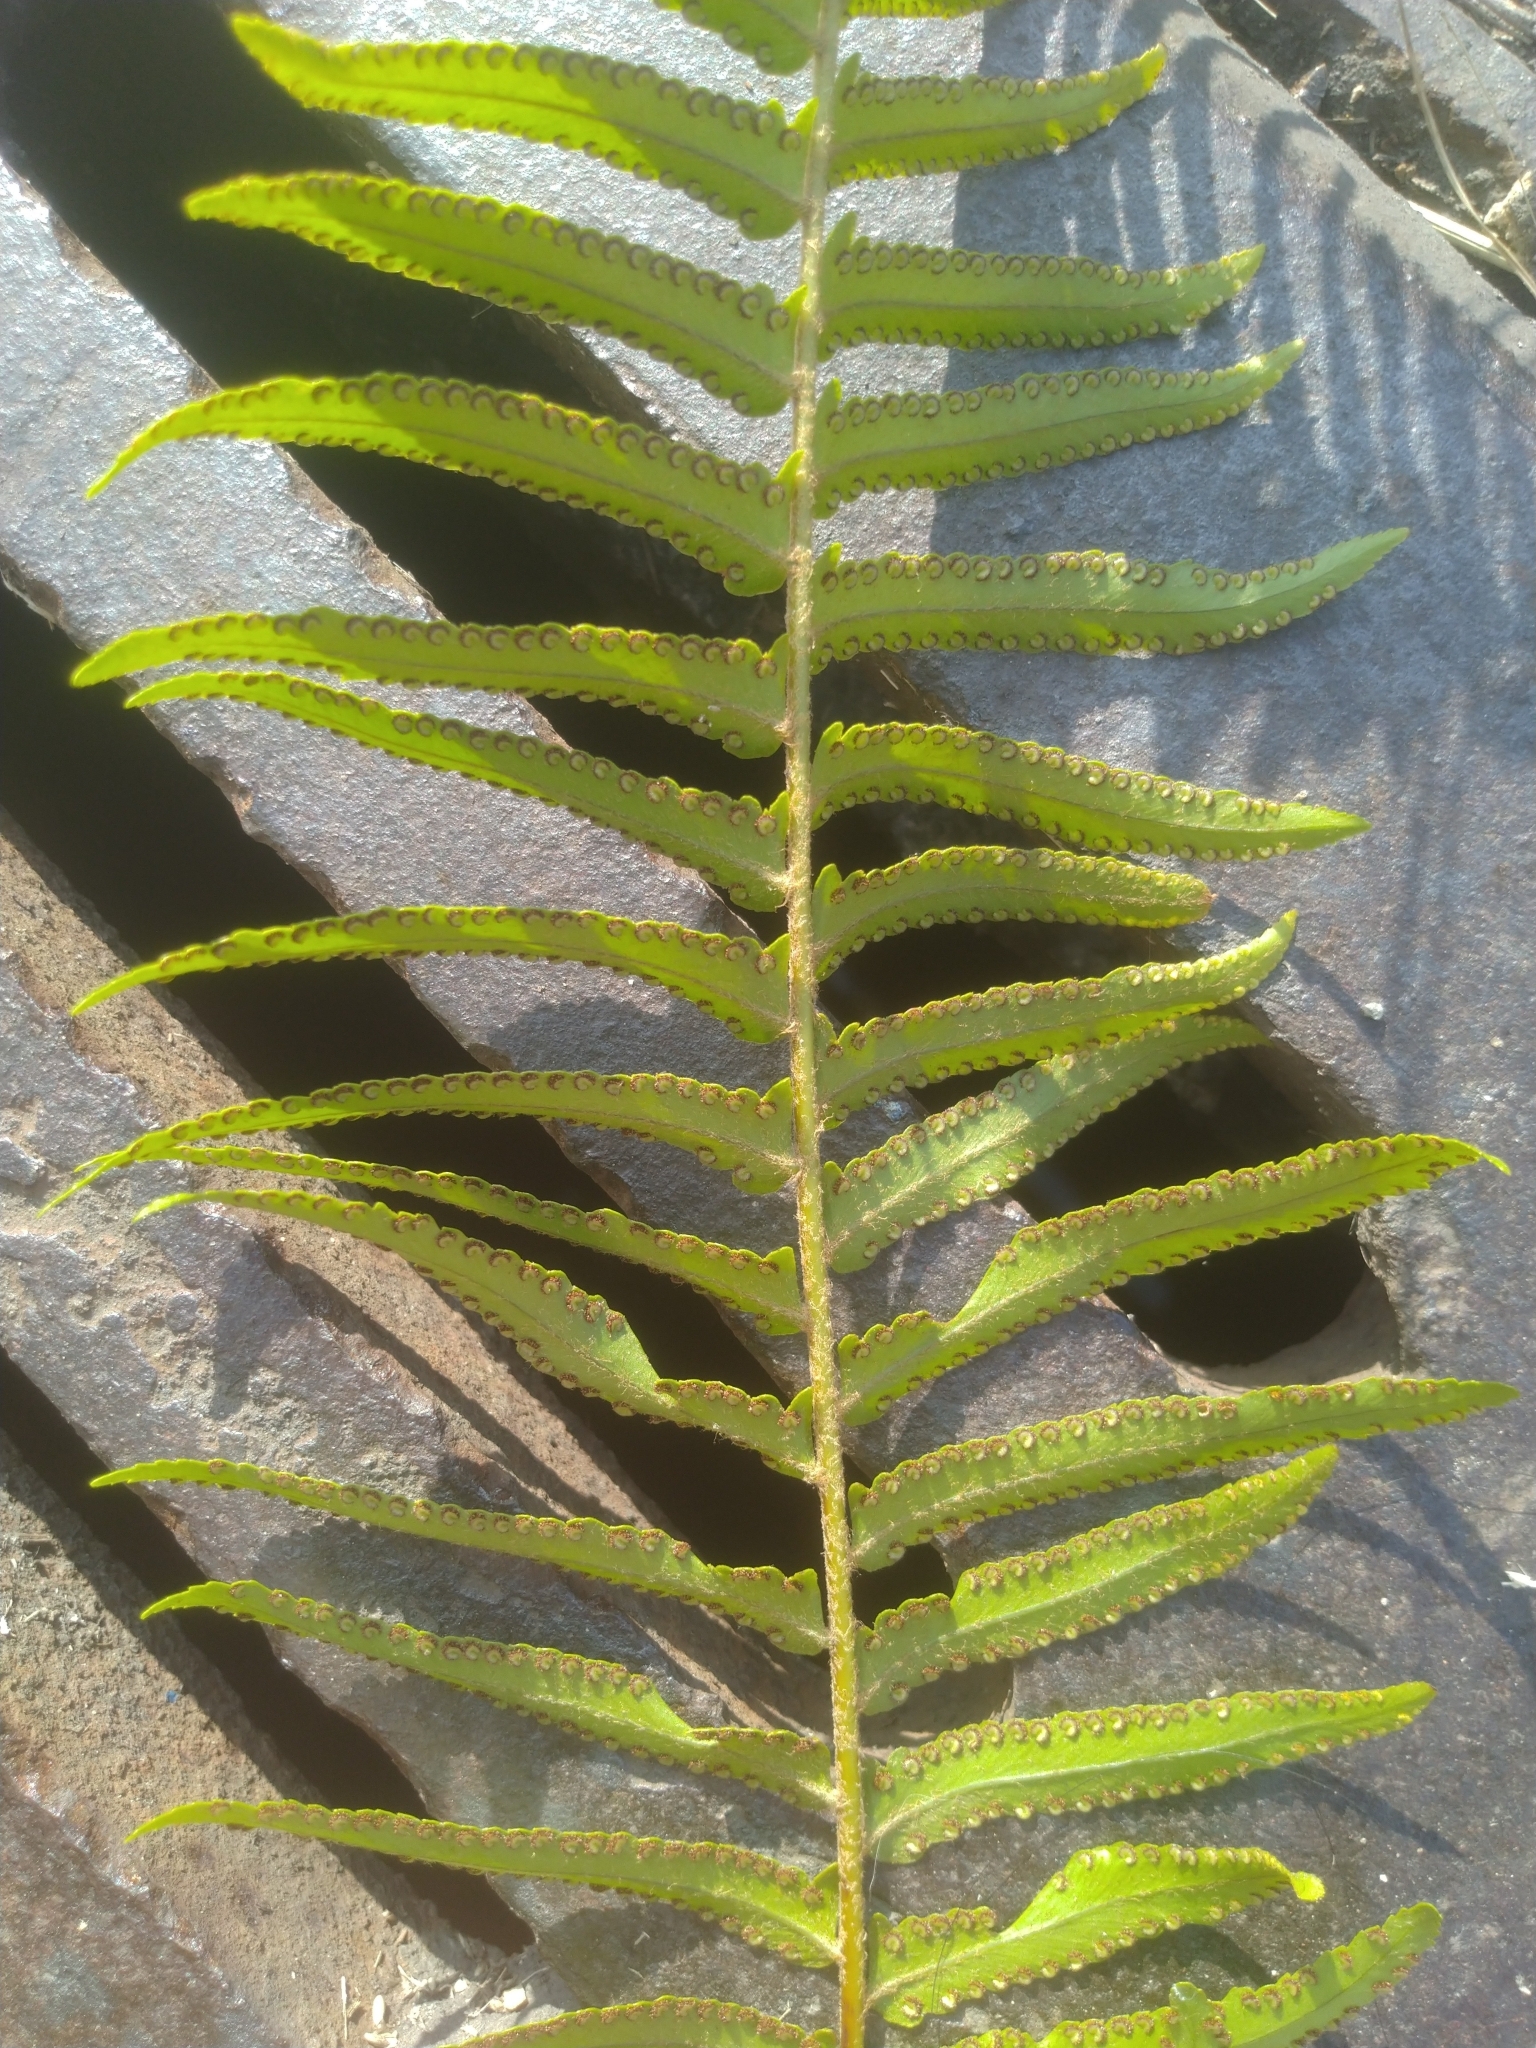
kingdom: Plantae
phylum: Tracheophyta
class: Polypodiopsida
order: Polypodiales
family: Nephrolepidaceae
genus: Nephrolepis
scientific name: Nephrolepis brownii
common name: Asian swordfern
